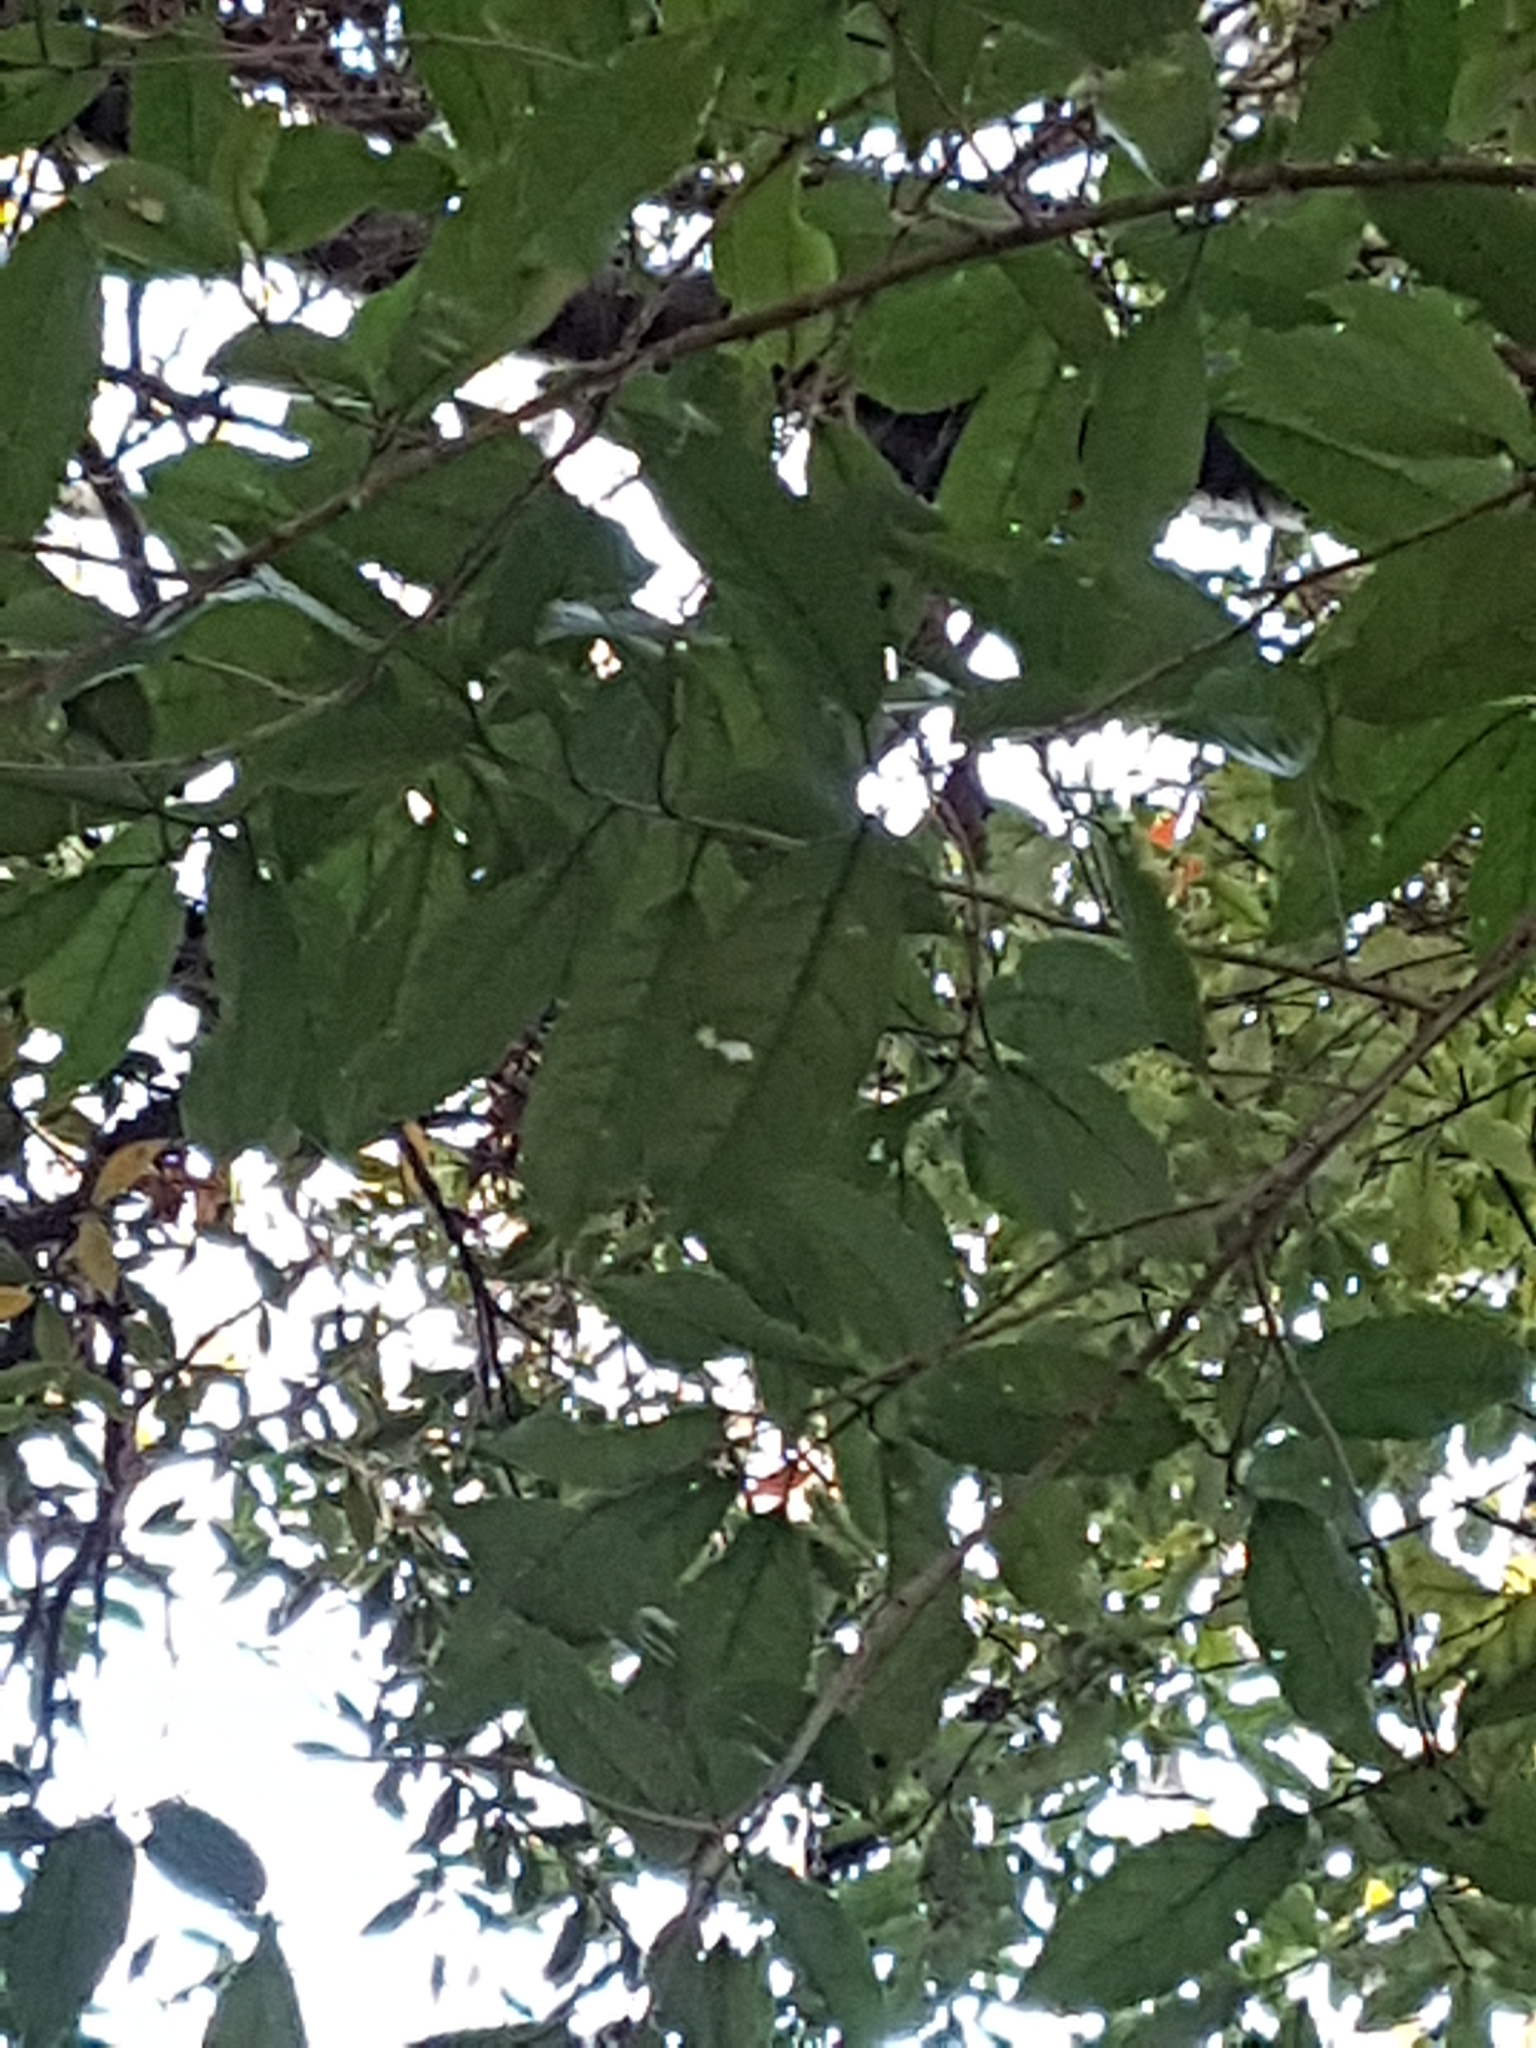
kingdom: Plantae
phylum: Tracheophyta
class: Magnoliopsida
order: Malpighiales
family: Violaceae
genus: Melicytus
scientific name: Melicytus ramiflorus
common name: Mahoe
